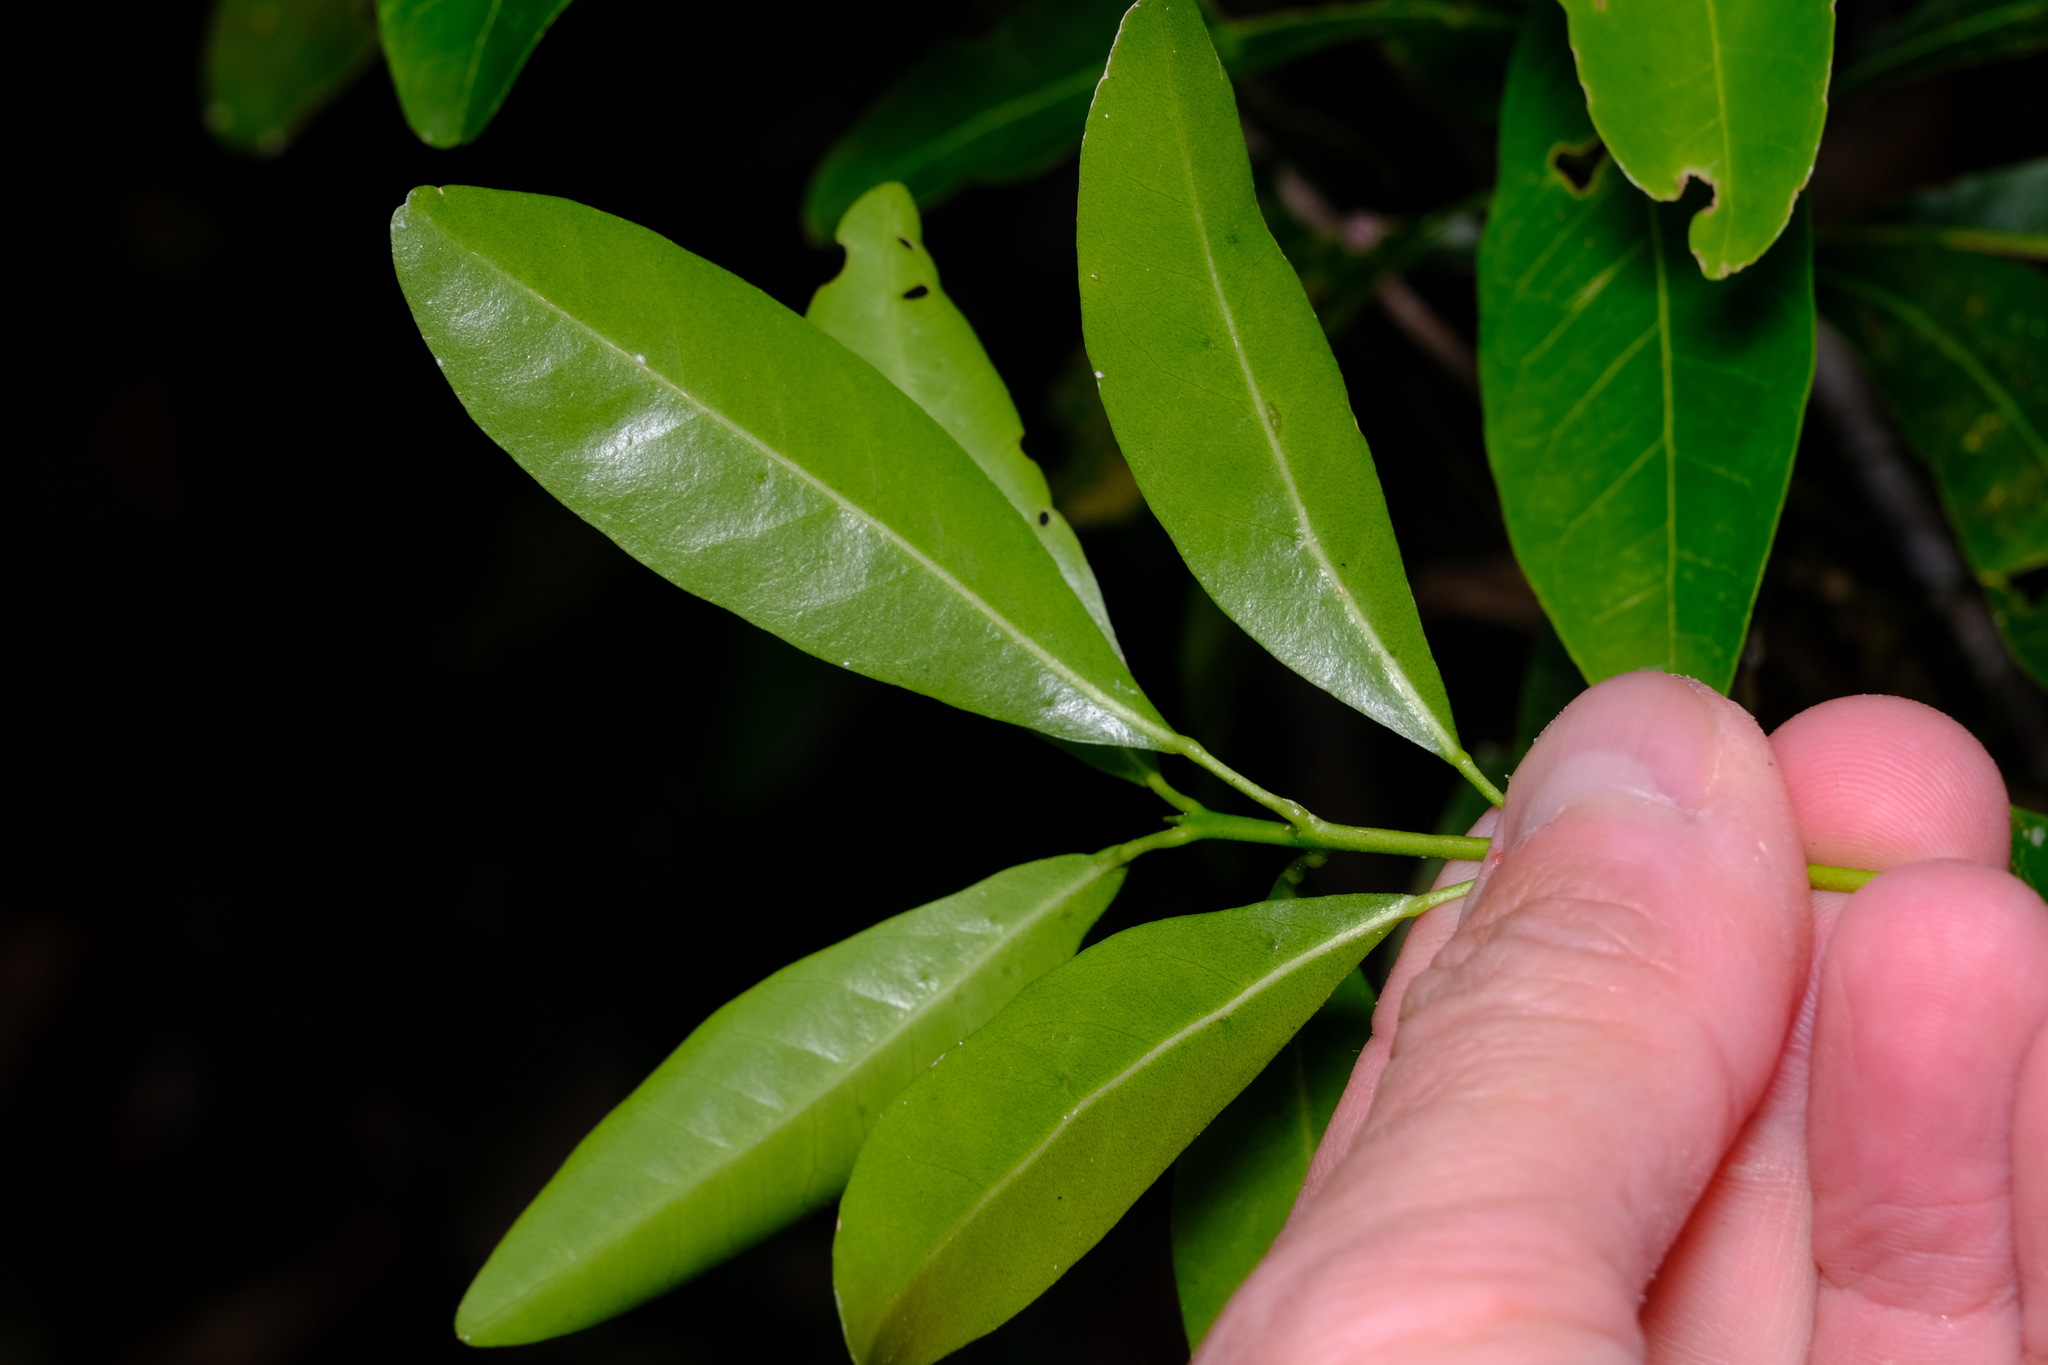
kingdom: Plantae
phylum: Tracheophyta
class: Magnoliopsida
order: Sapindales
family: Rutaceae
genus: Acronychia
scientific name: Acronychia oblongifolia
